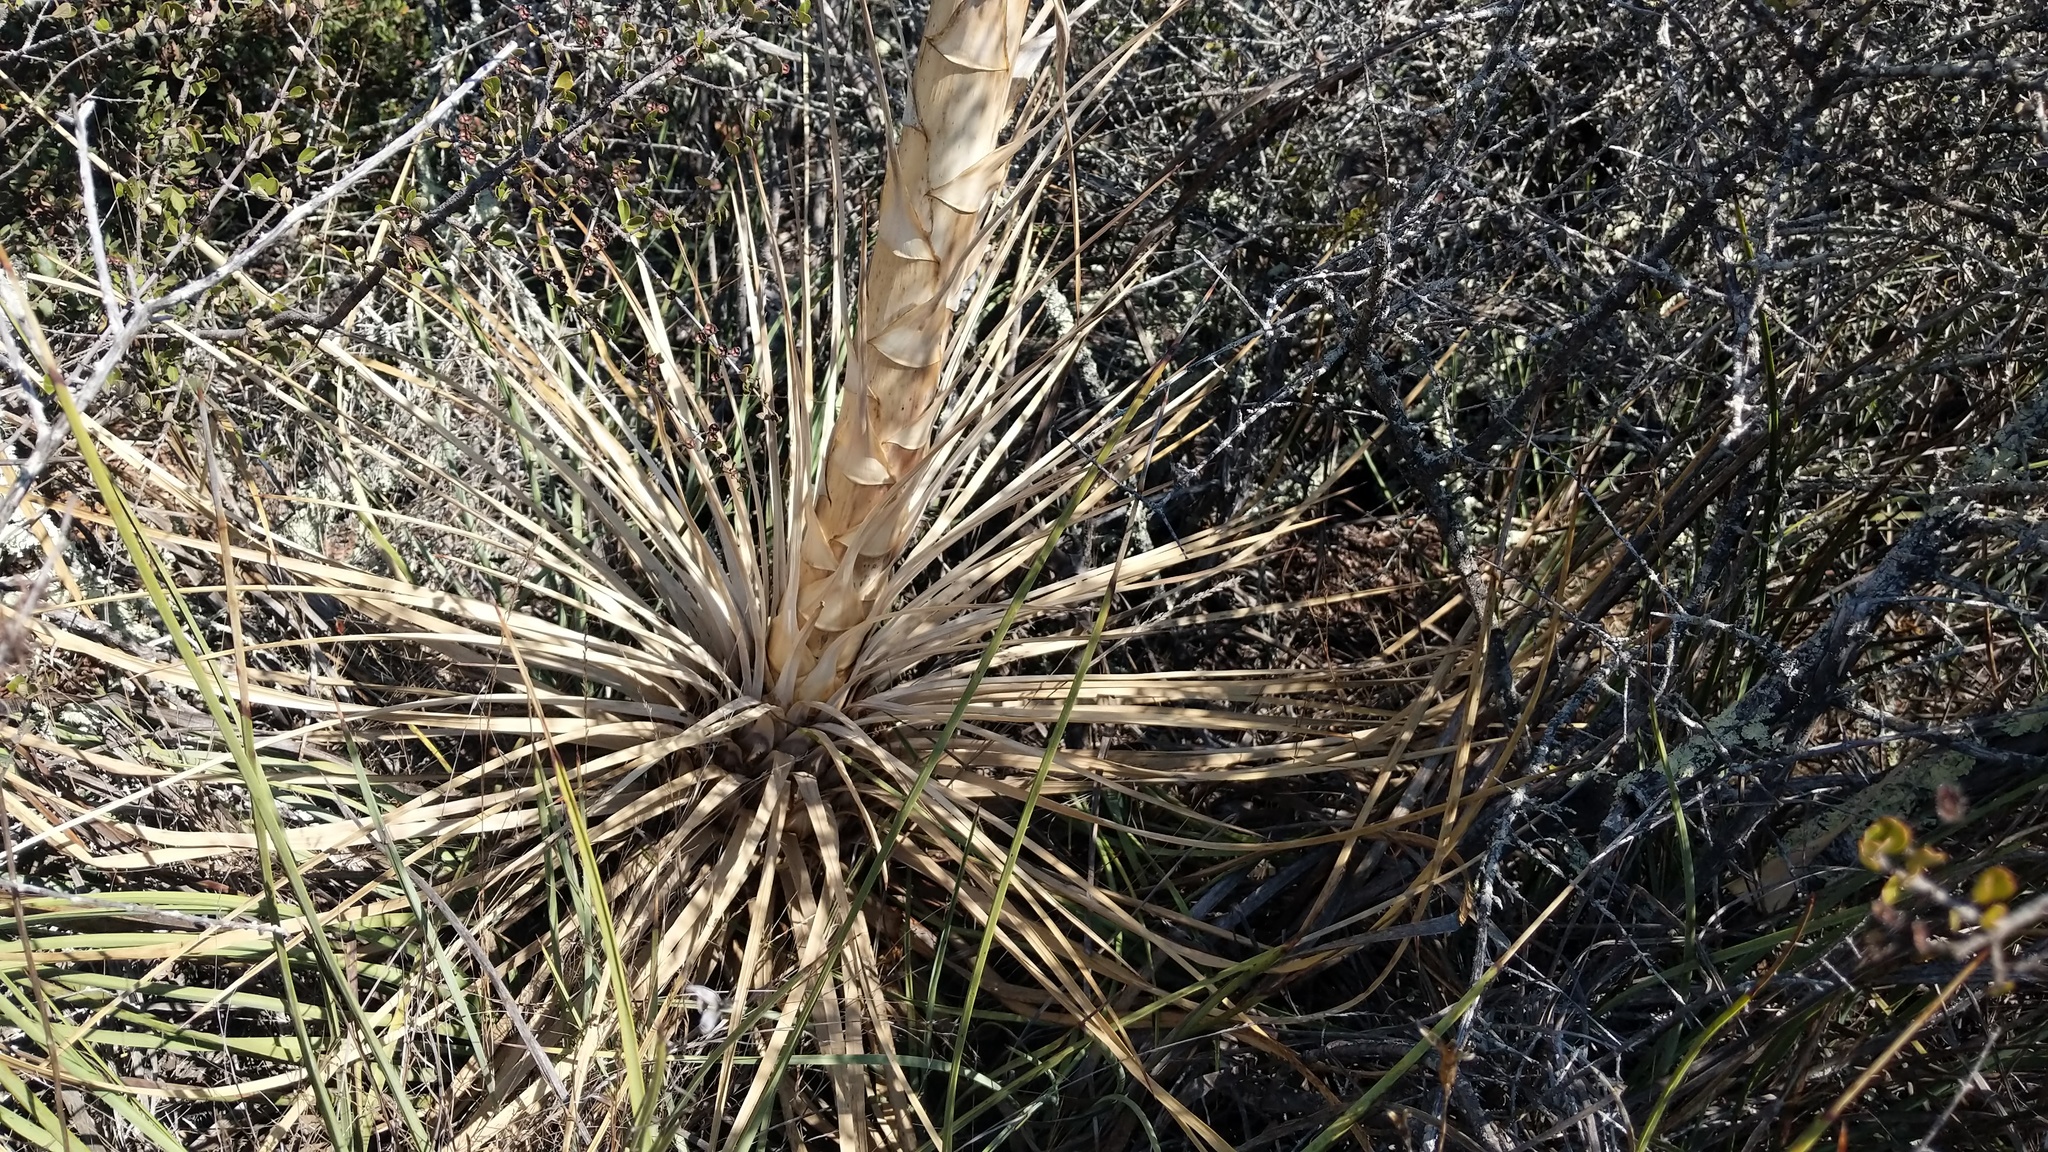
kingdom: Plantae
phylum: Tracheophyta
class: Liliopsida
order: Asparagales
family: Asparagaceae
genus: Hesperoyucca
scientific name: Hesperoyucca whipplei
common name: Our lord's-candle
